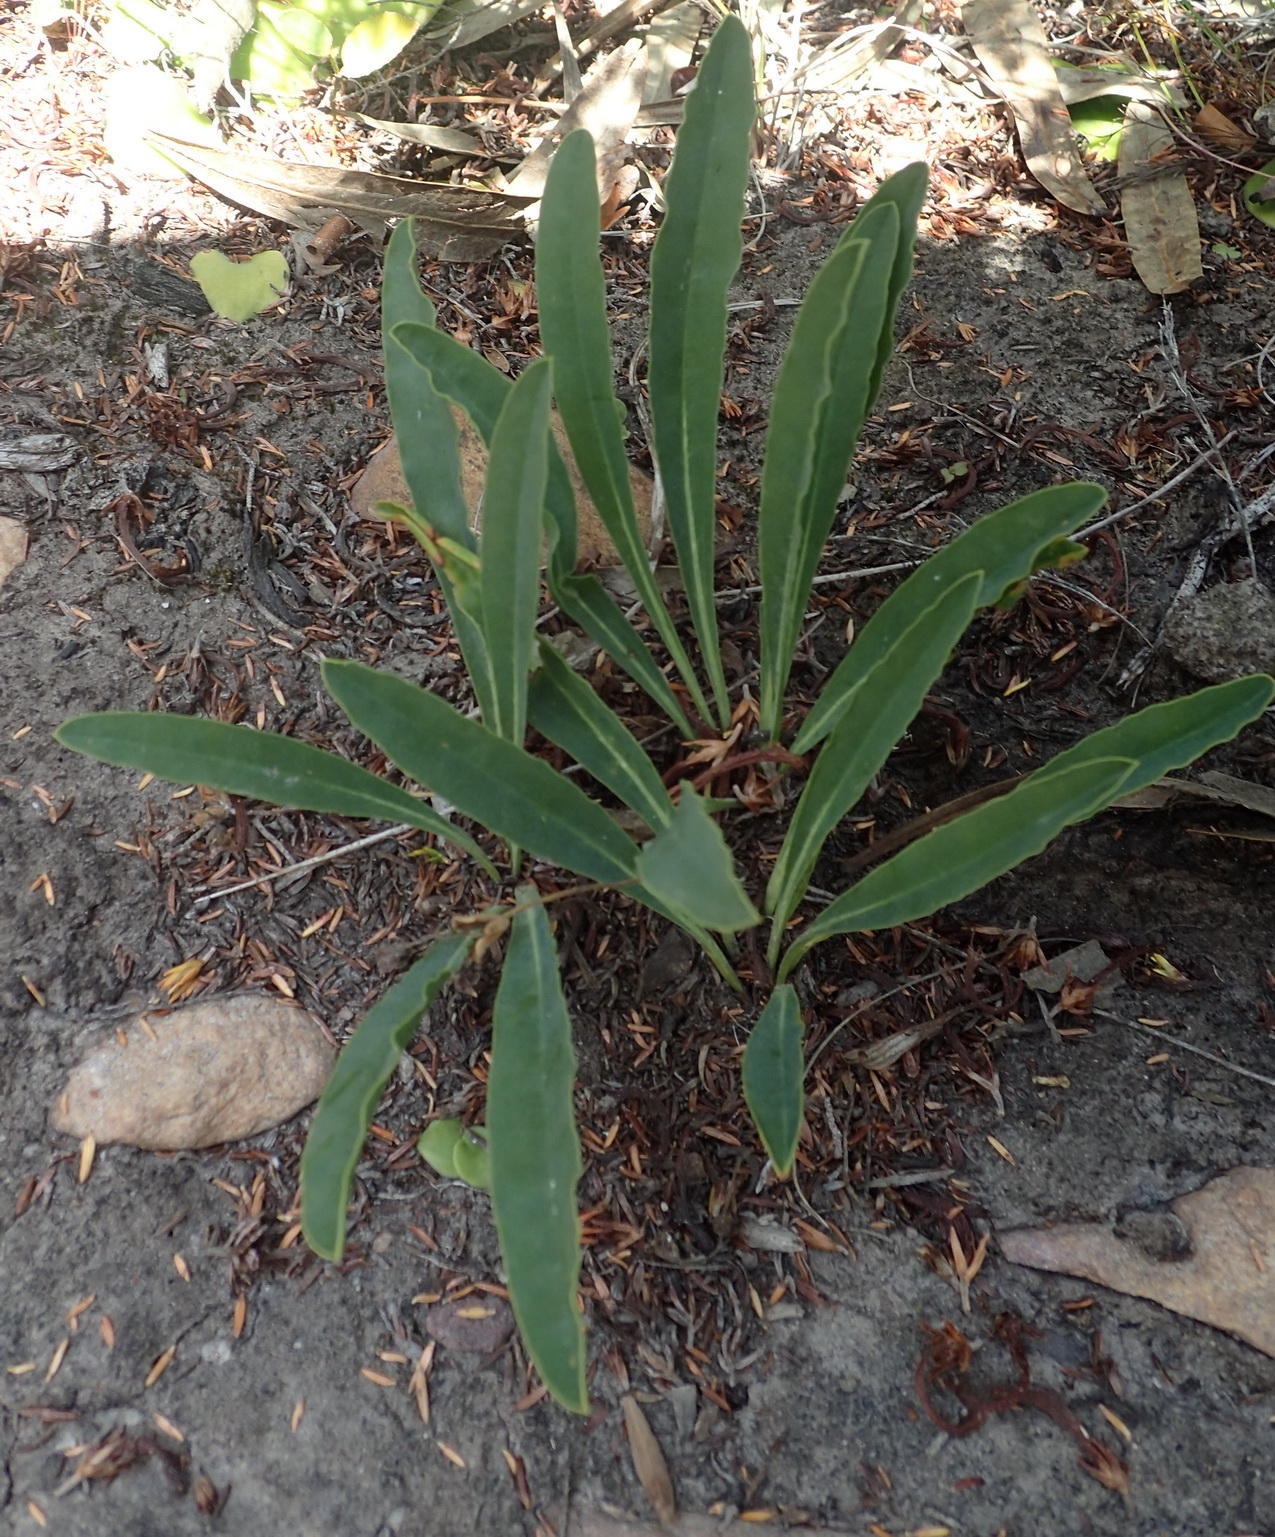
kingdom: Plantae
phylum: Tracheophyta
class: Magnoliopsida
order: Malpighiales
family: Euphorbiaceae
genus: Euphorbia
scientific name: Euphorbia silenifolia
